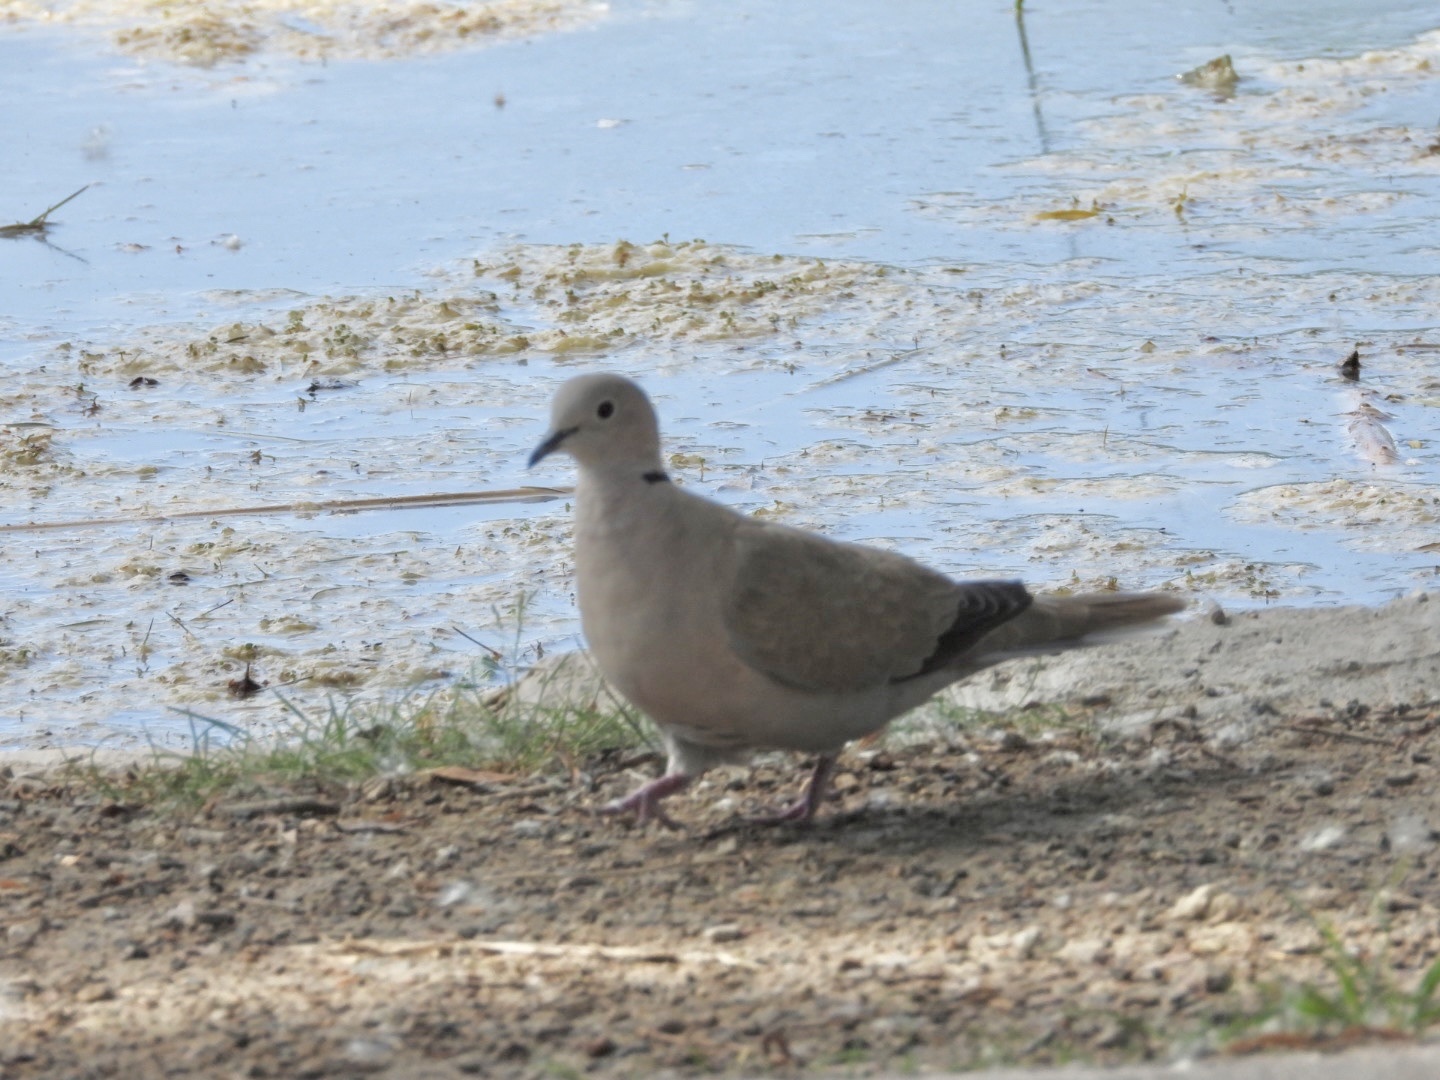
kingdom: Animalia
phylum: Chordata
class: Aves
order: Columbiformes
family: Columbidae
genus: Streptopelia
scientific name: Streptopelia decaocto
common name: Eurasian collared dove
